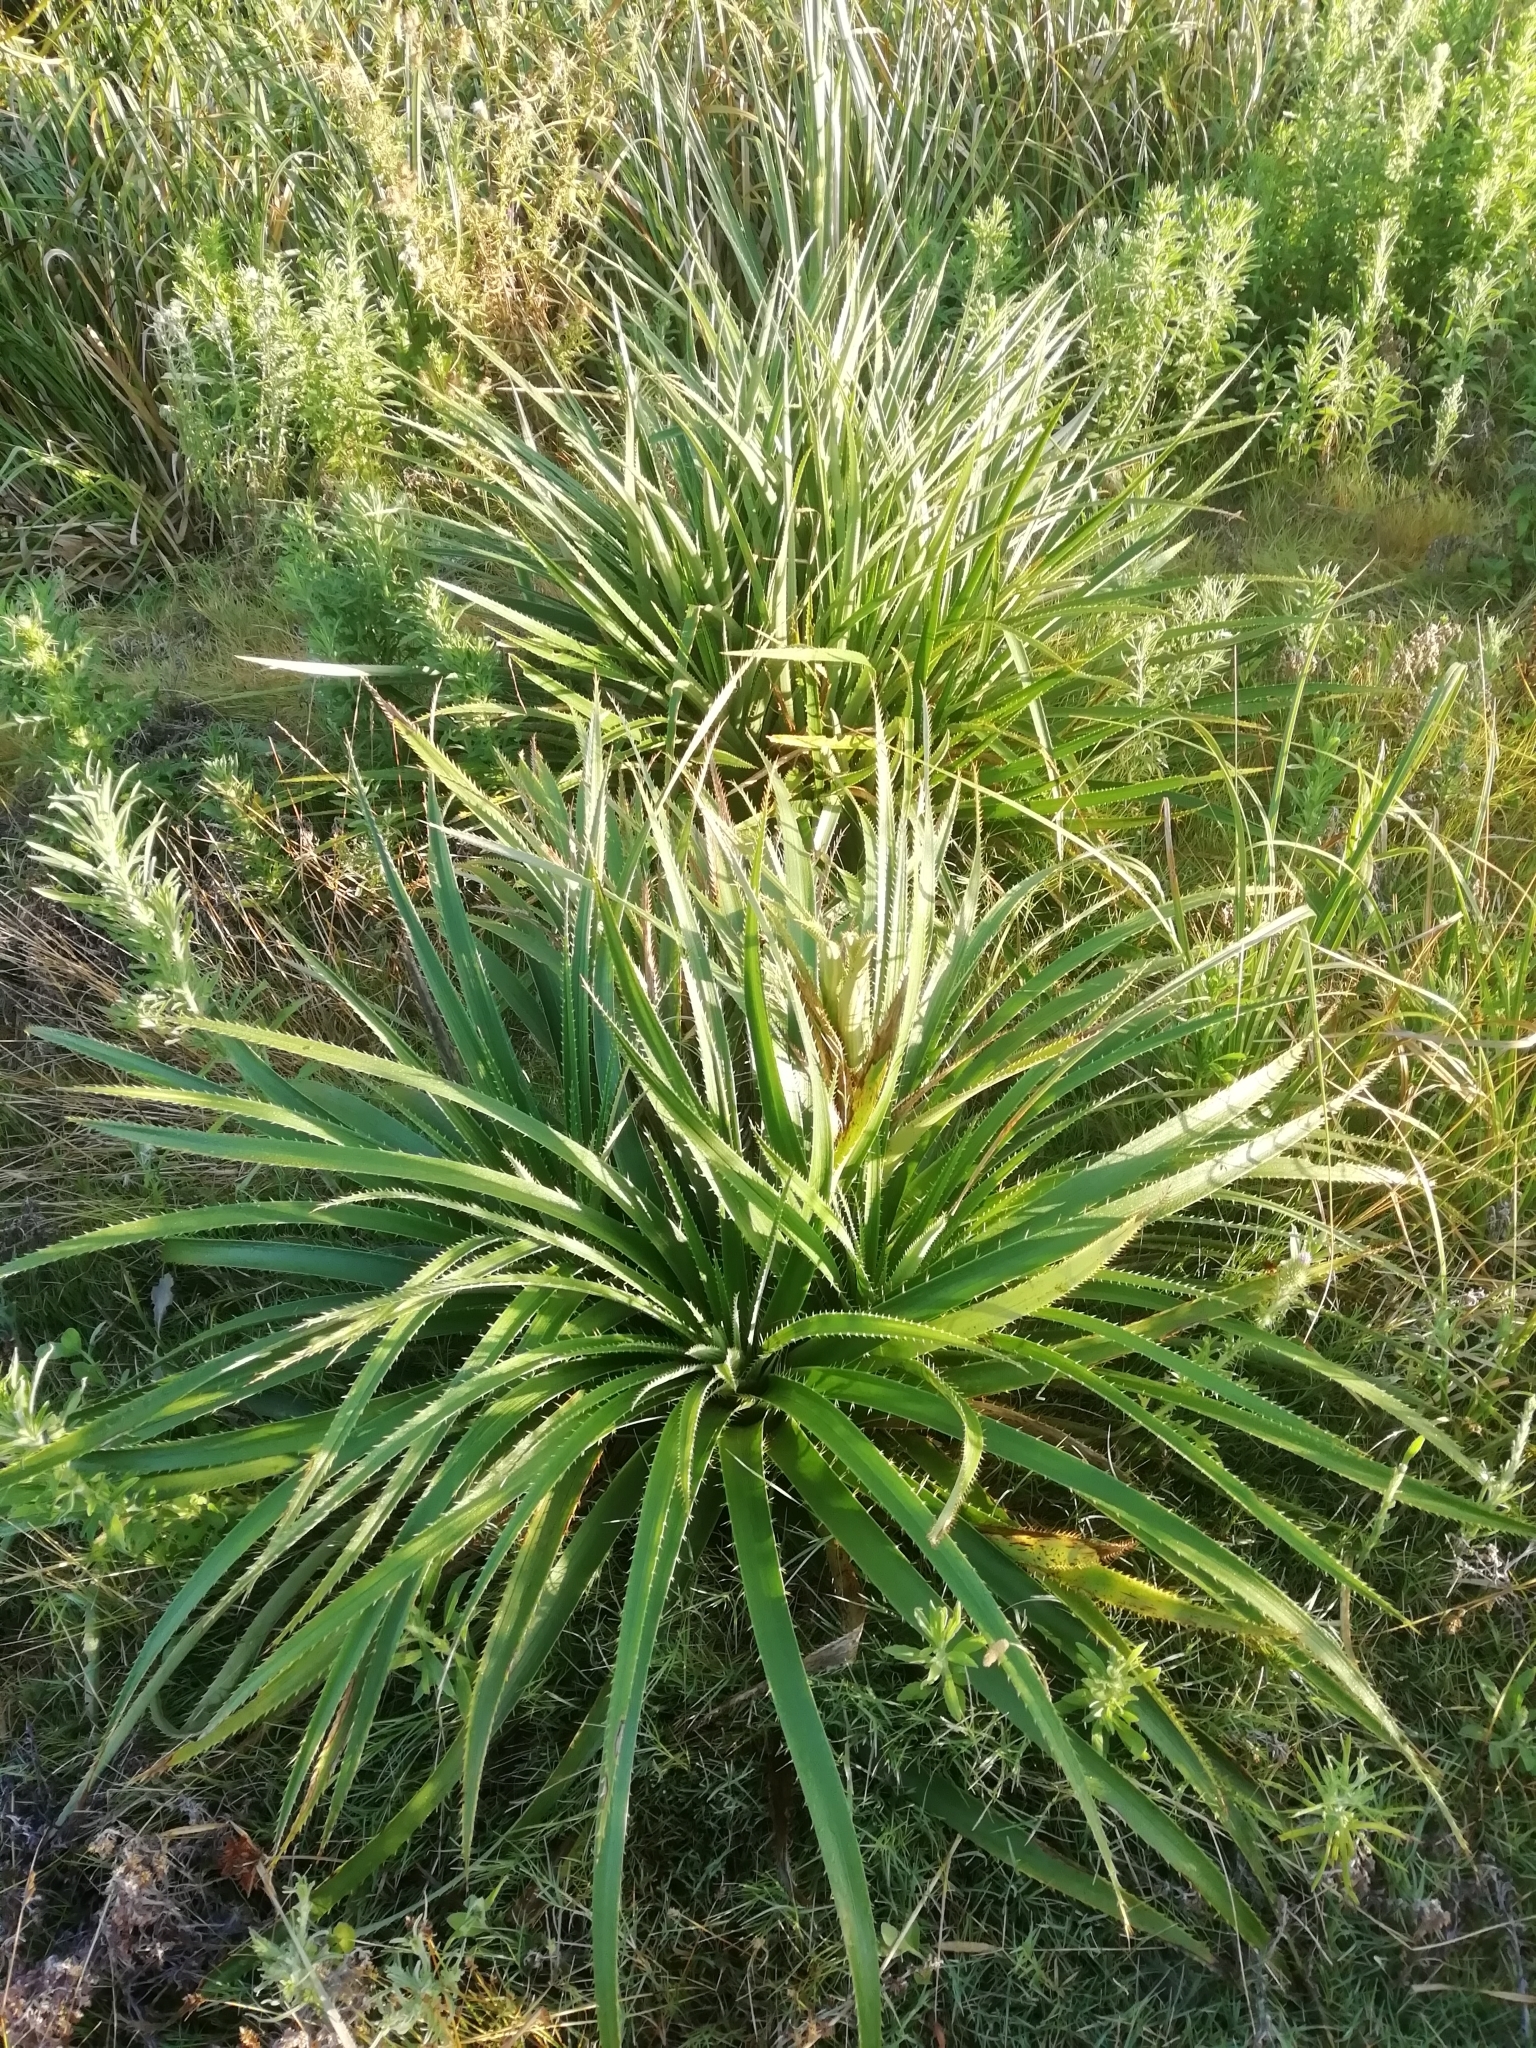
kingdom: Plantae
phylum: Tracheophyta
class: Magnoliopsida
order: Apiales
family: Apiaceae
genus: Eryngium
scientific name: Eryngium eburneum
